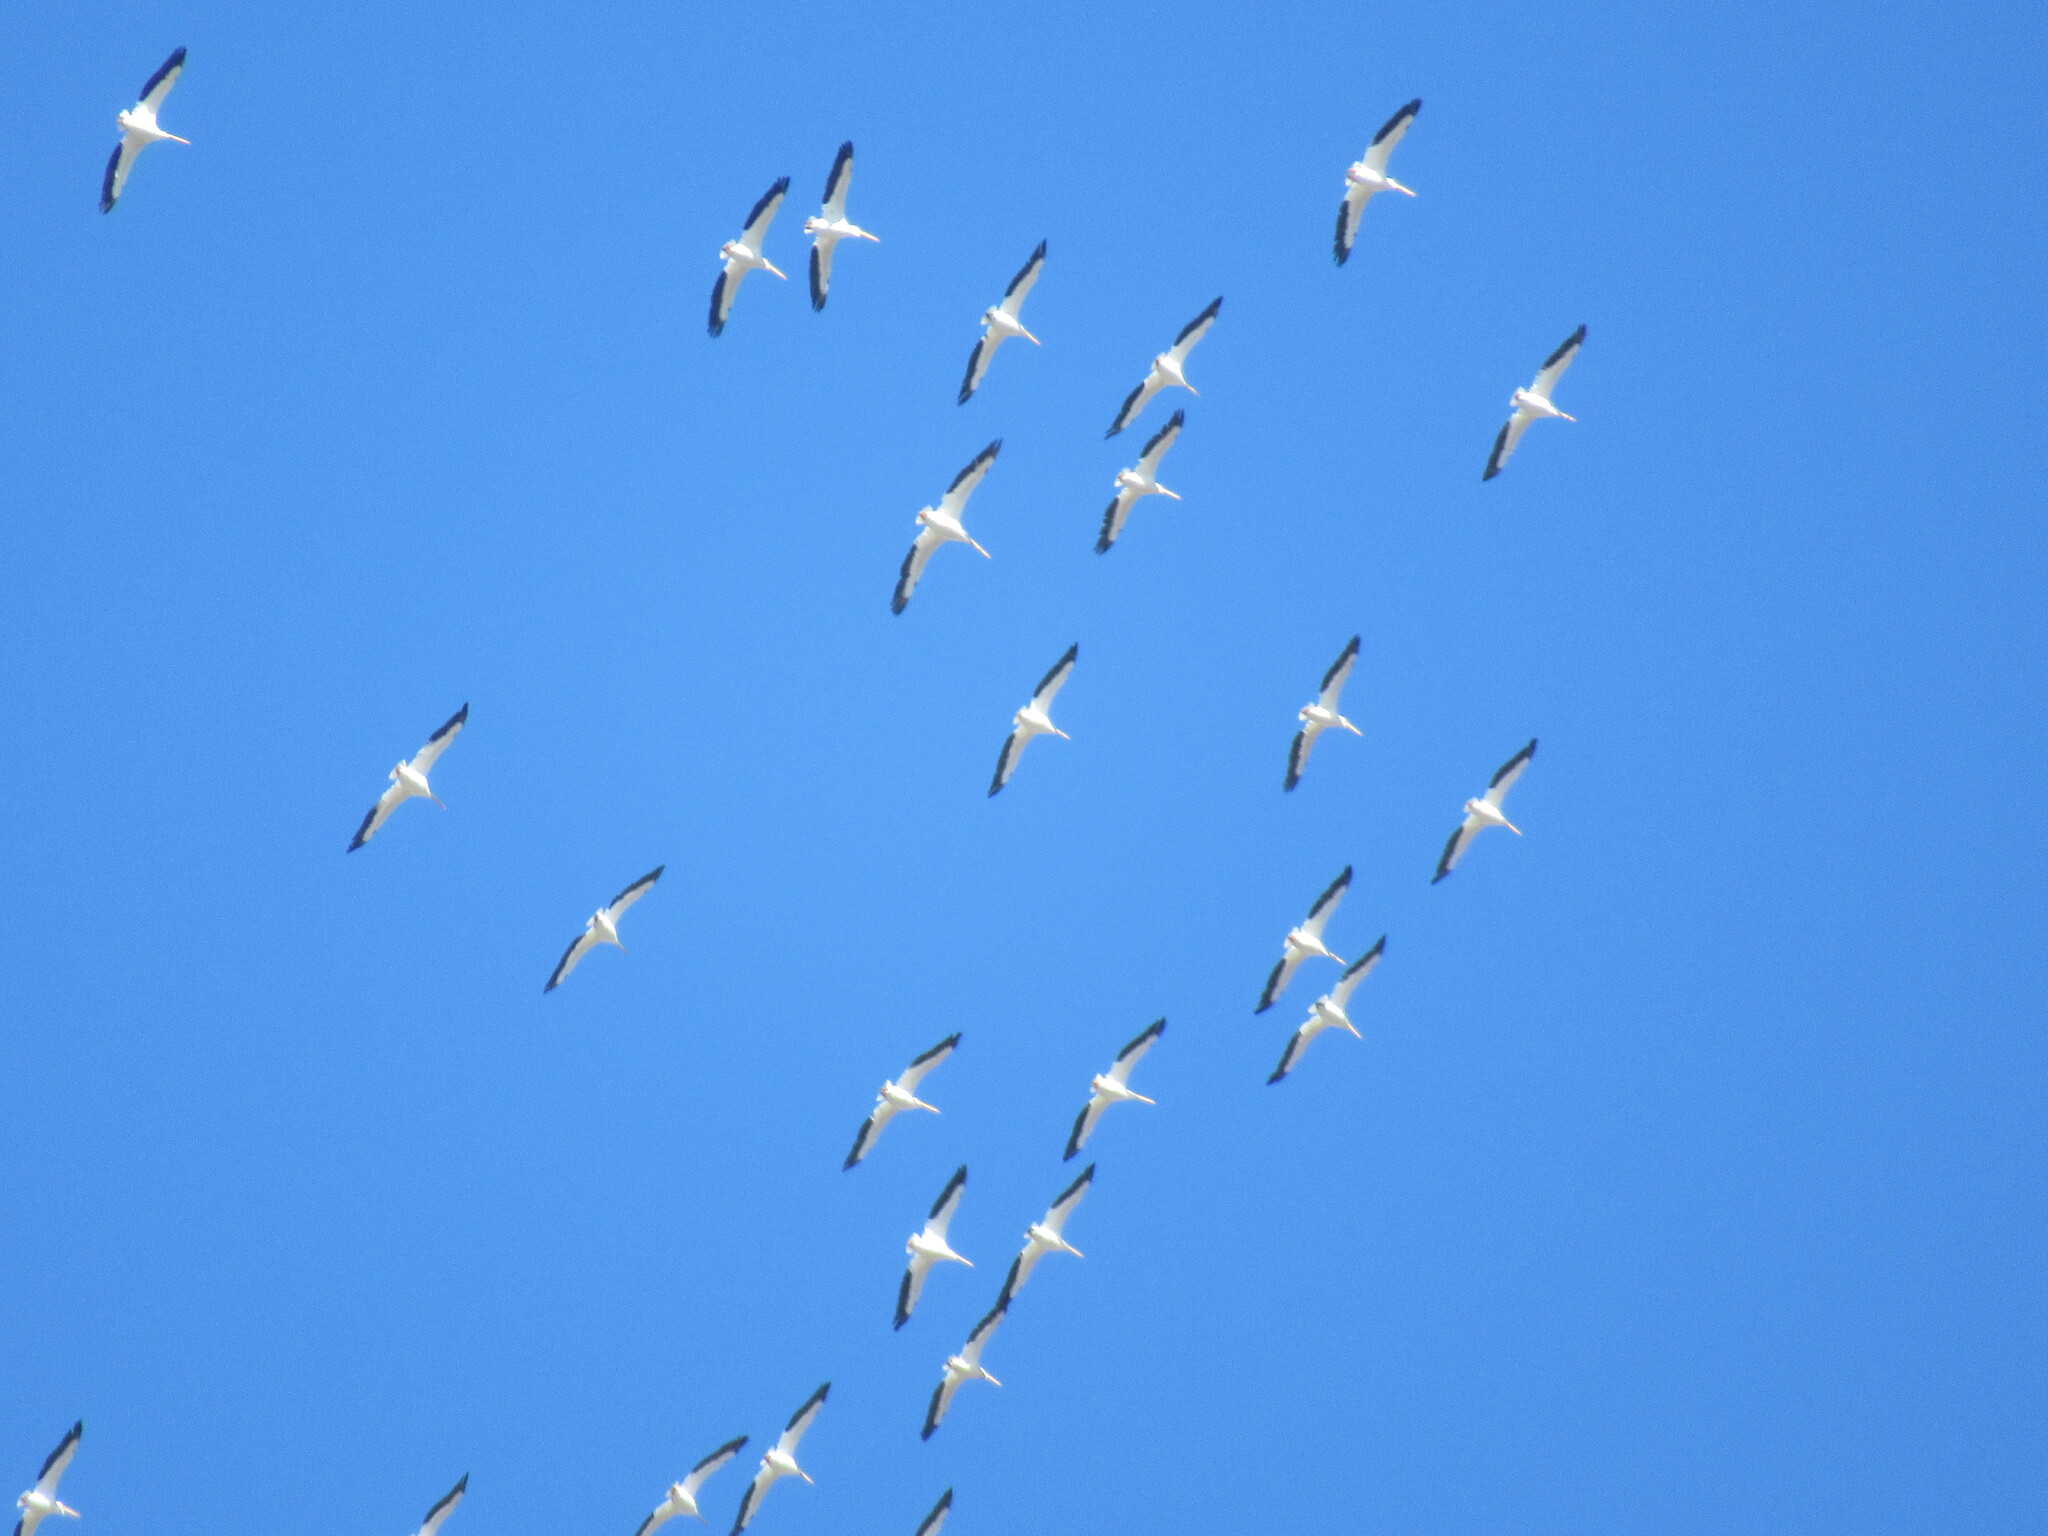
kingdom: Animalia
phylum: Chordata
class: Aves
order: Pelecaniformes
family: Pelecanidae
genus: Pelecanus
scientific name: Pelecanus erythrorhynchos
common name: American white pelican
